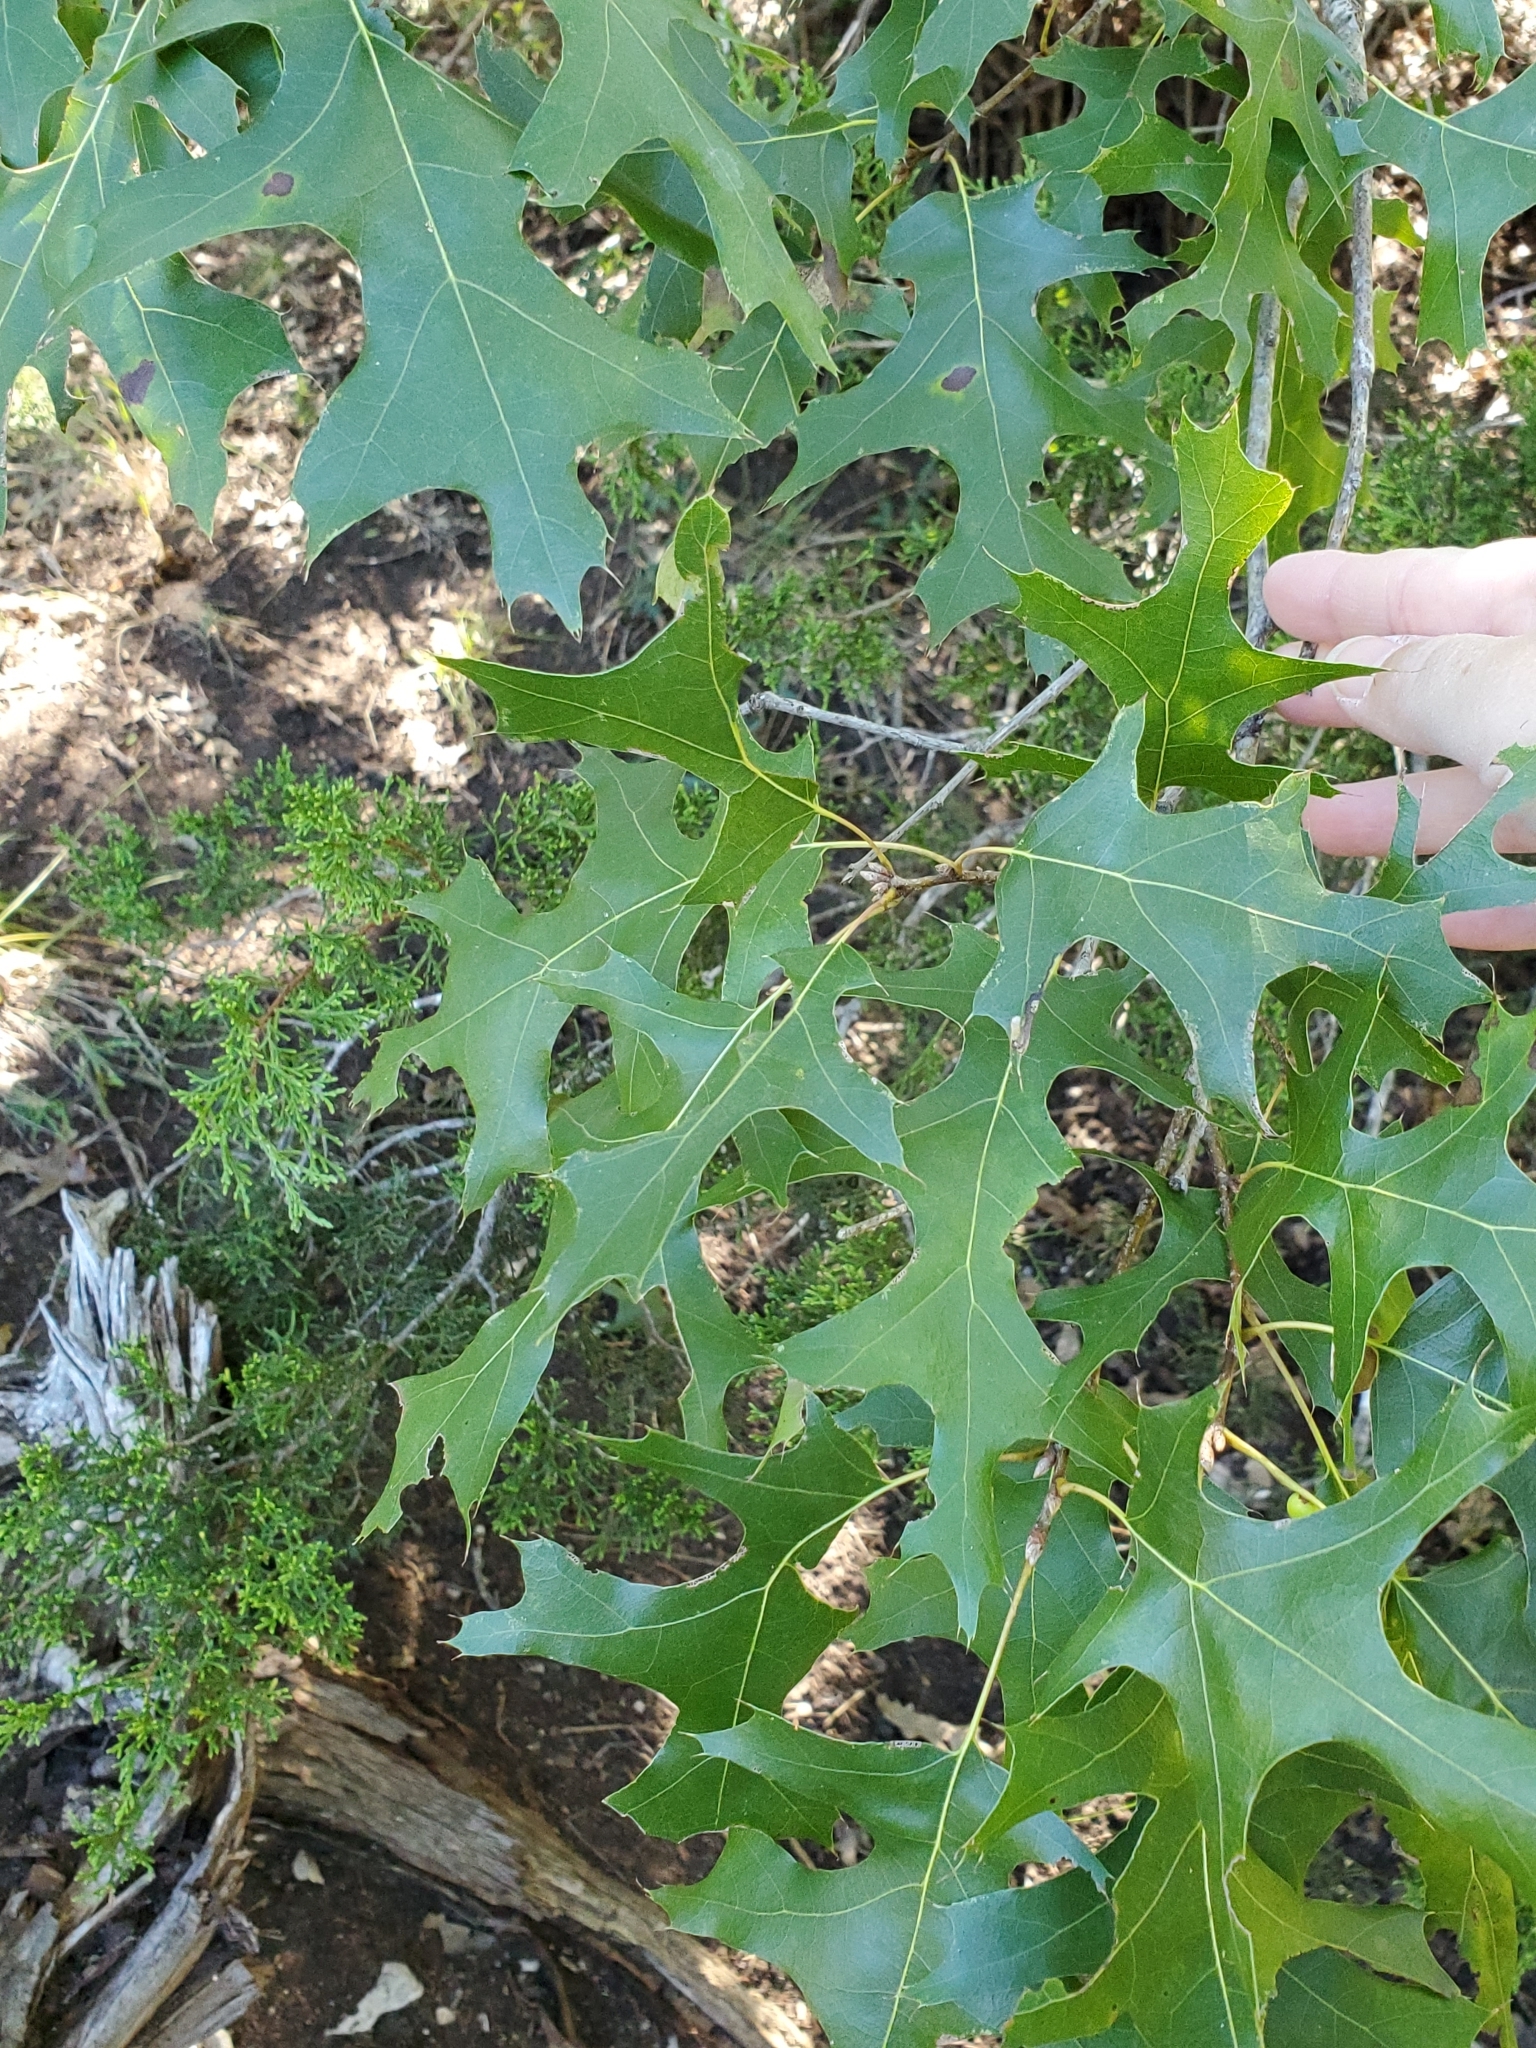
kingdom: Plantae
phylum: Tracheophyta
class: Magnoliopsida
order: Fagales
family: Fagaceae
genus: Quercus
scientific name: Quercus buckleyi
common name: Buckley oak
